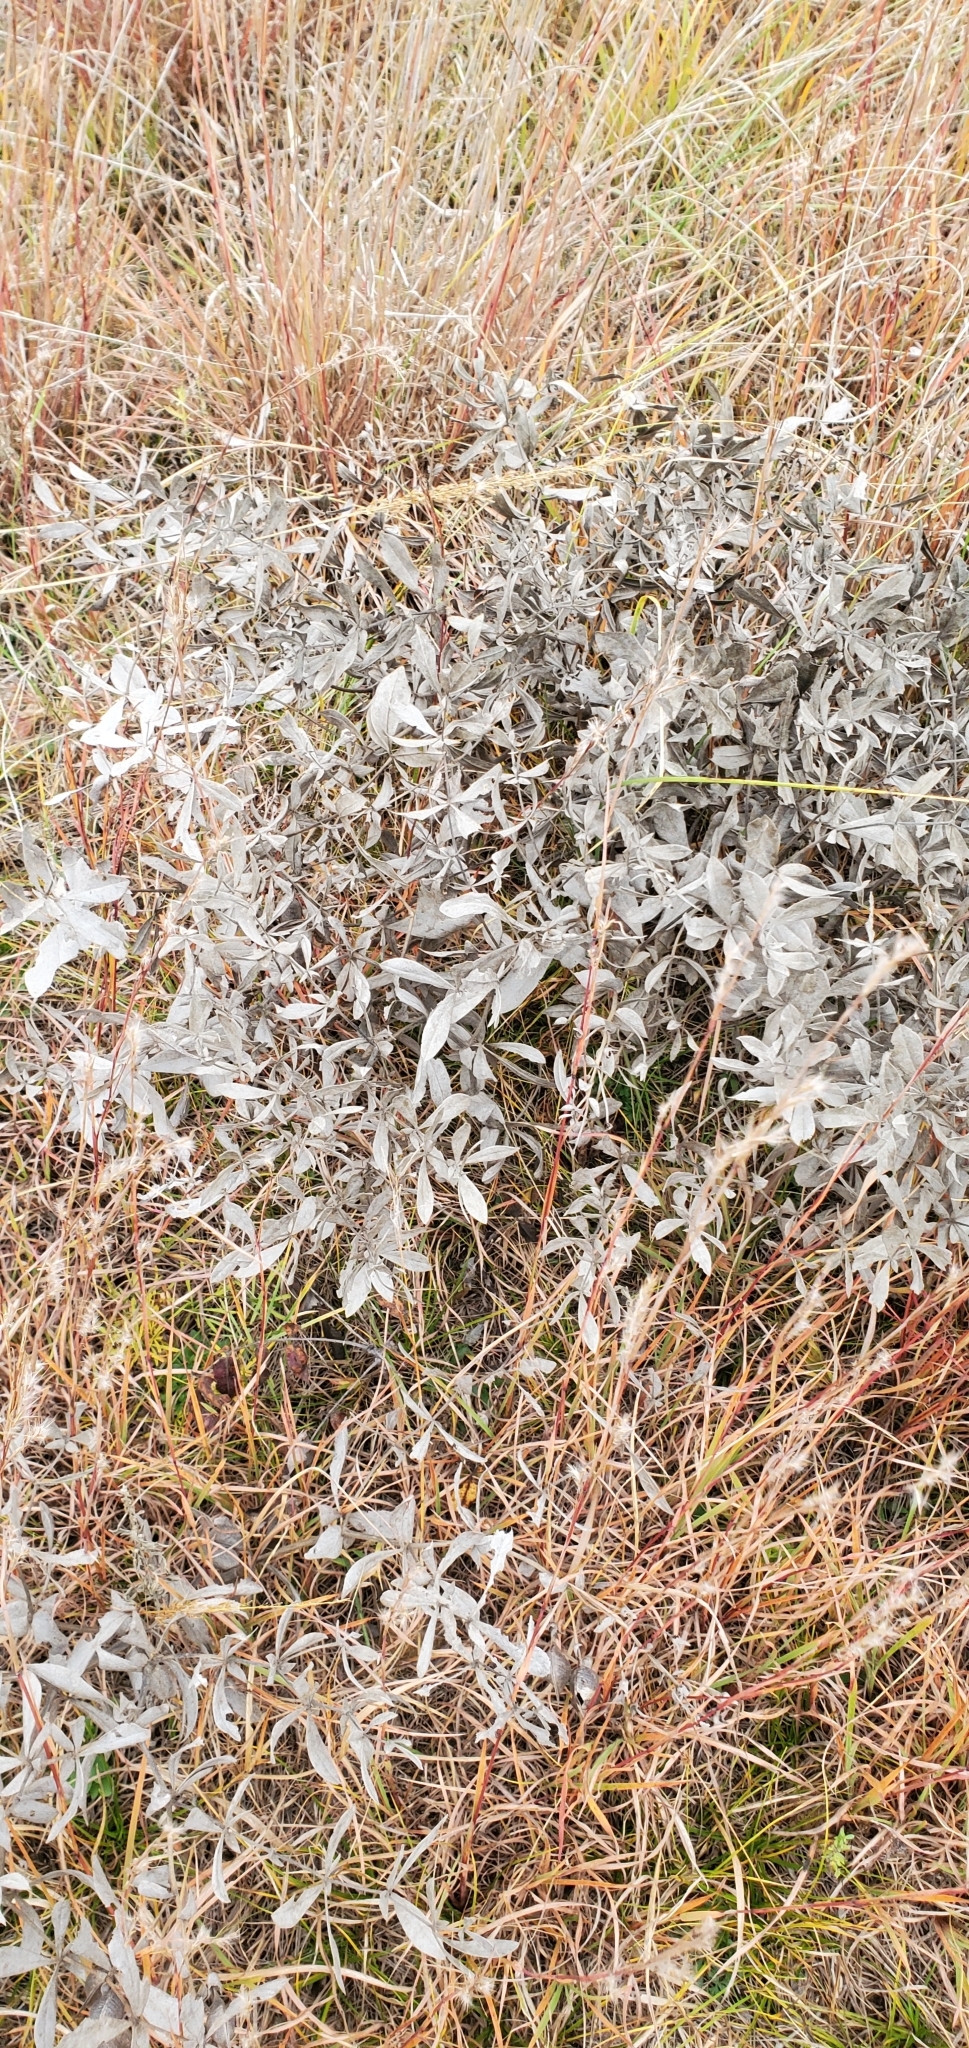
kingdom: Plantae
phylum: Tracheophyta
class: Magnoliopsida
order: Fabales
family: Fabaceae
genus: Baptisia
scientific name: Baptisia bracteata
